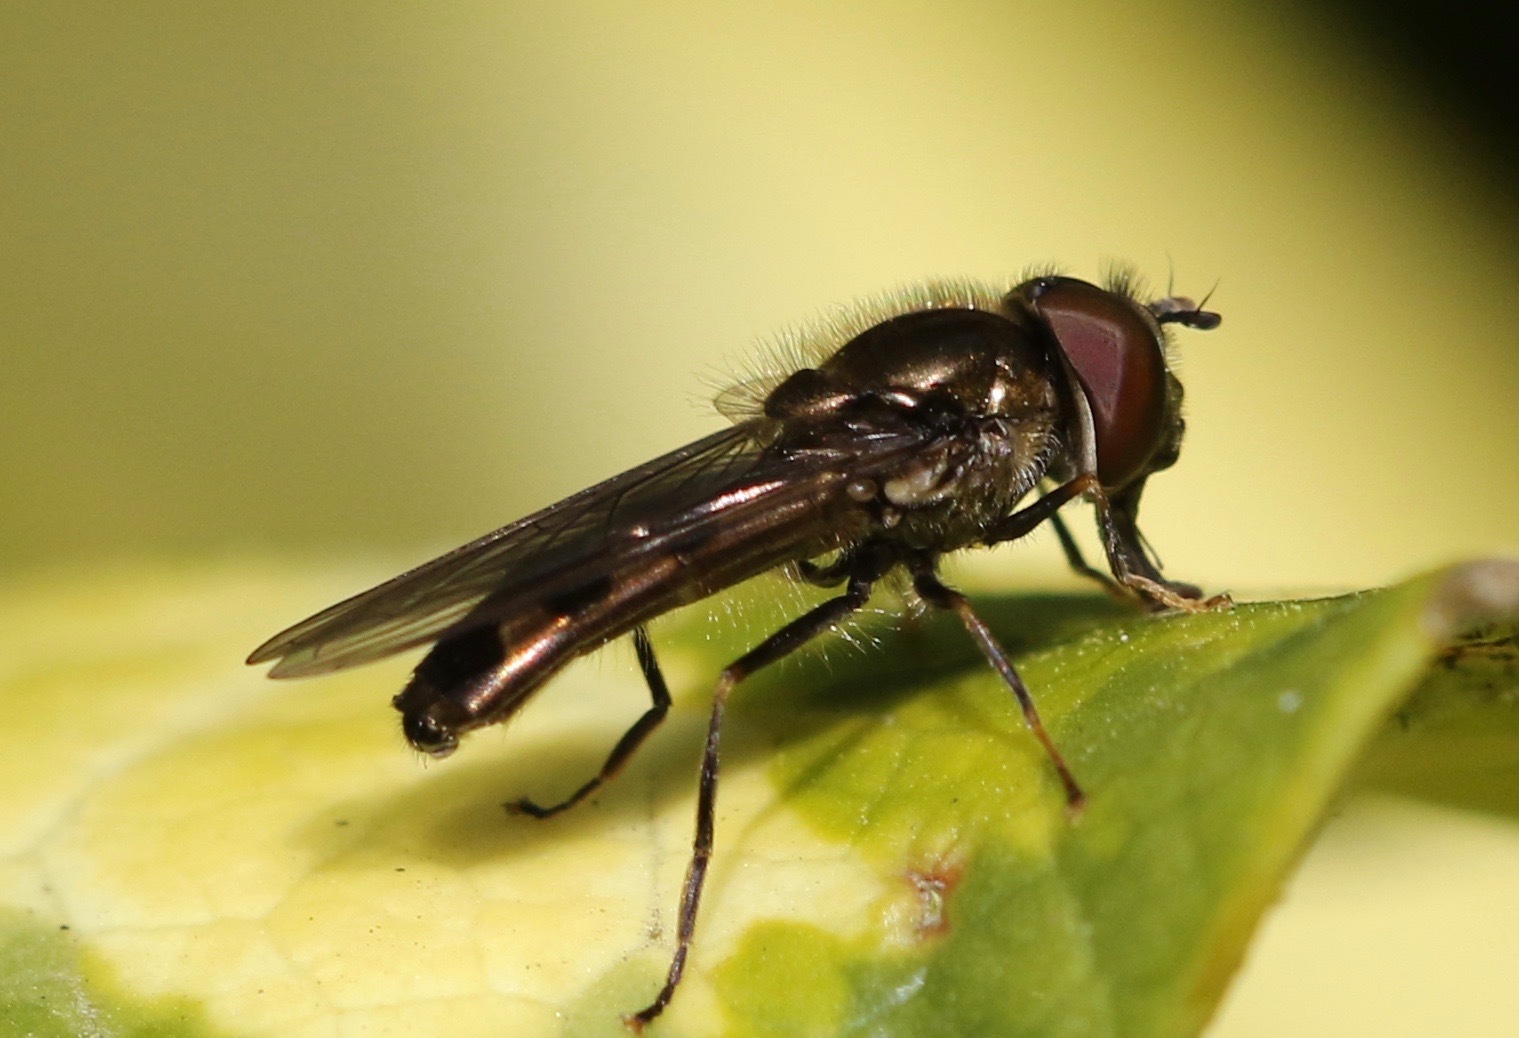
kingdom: Animalia
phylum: Arthropoda
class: Insecta
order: Diptera
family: Syrphidae
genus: Platycheirus
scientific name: Platycheirus albimanus
